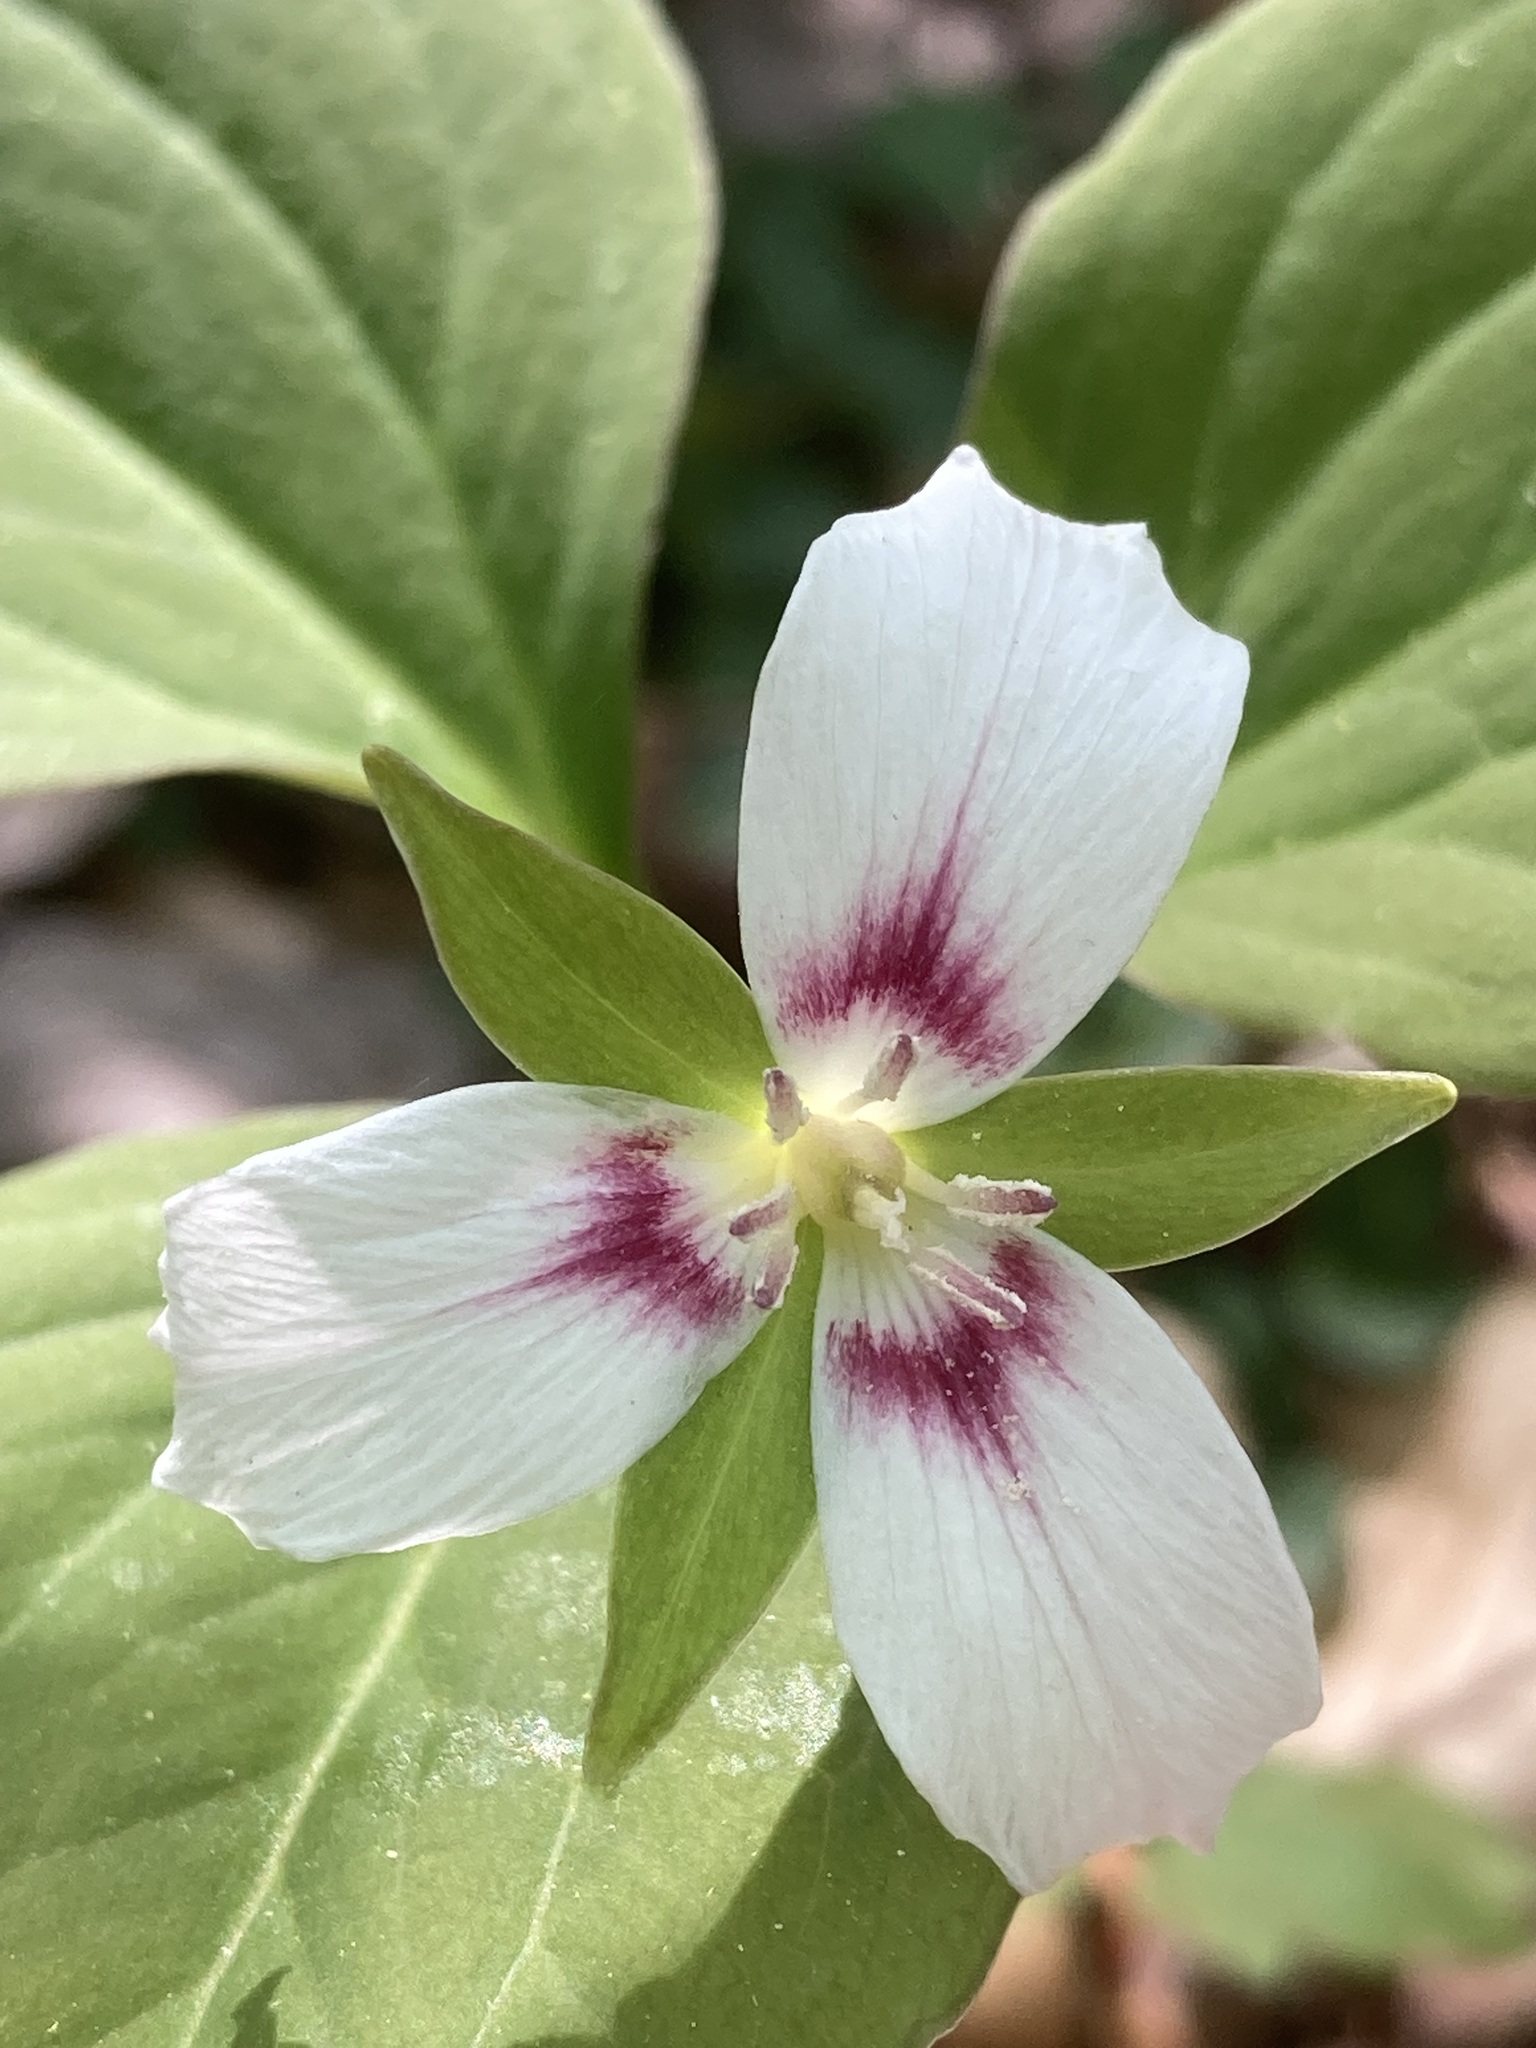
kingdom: Plantae
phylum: Tracheophyta
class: Liliopsida
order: Liliales
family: Melanthiaceae
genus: Trillium
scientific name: Trillium undulatum
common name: Paint trillium
